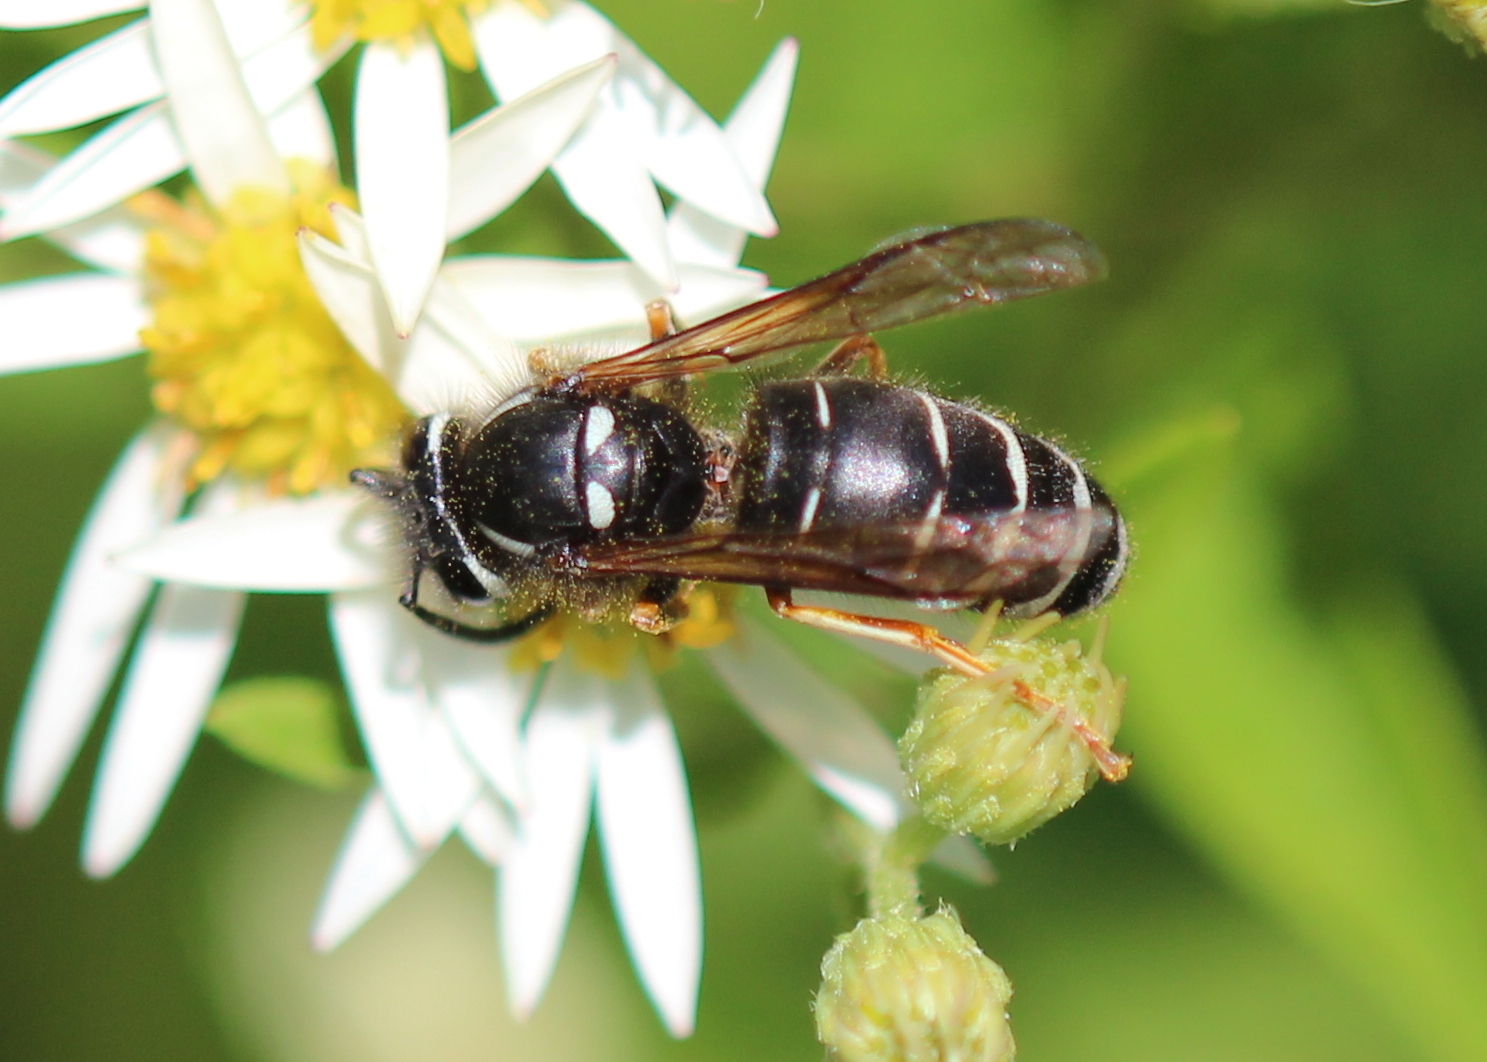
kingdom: Animalia
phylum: Arthropoda
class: Insecta
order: Hymenoptera
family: Vespidae
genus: Vespula
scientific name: Vespula consobrina
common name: Blackjacket
